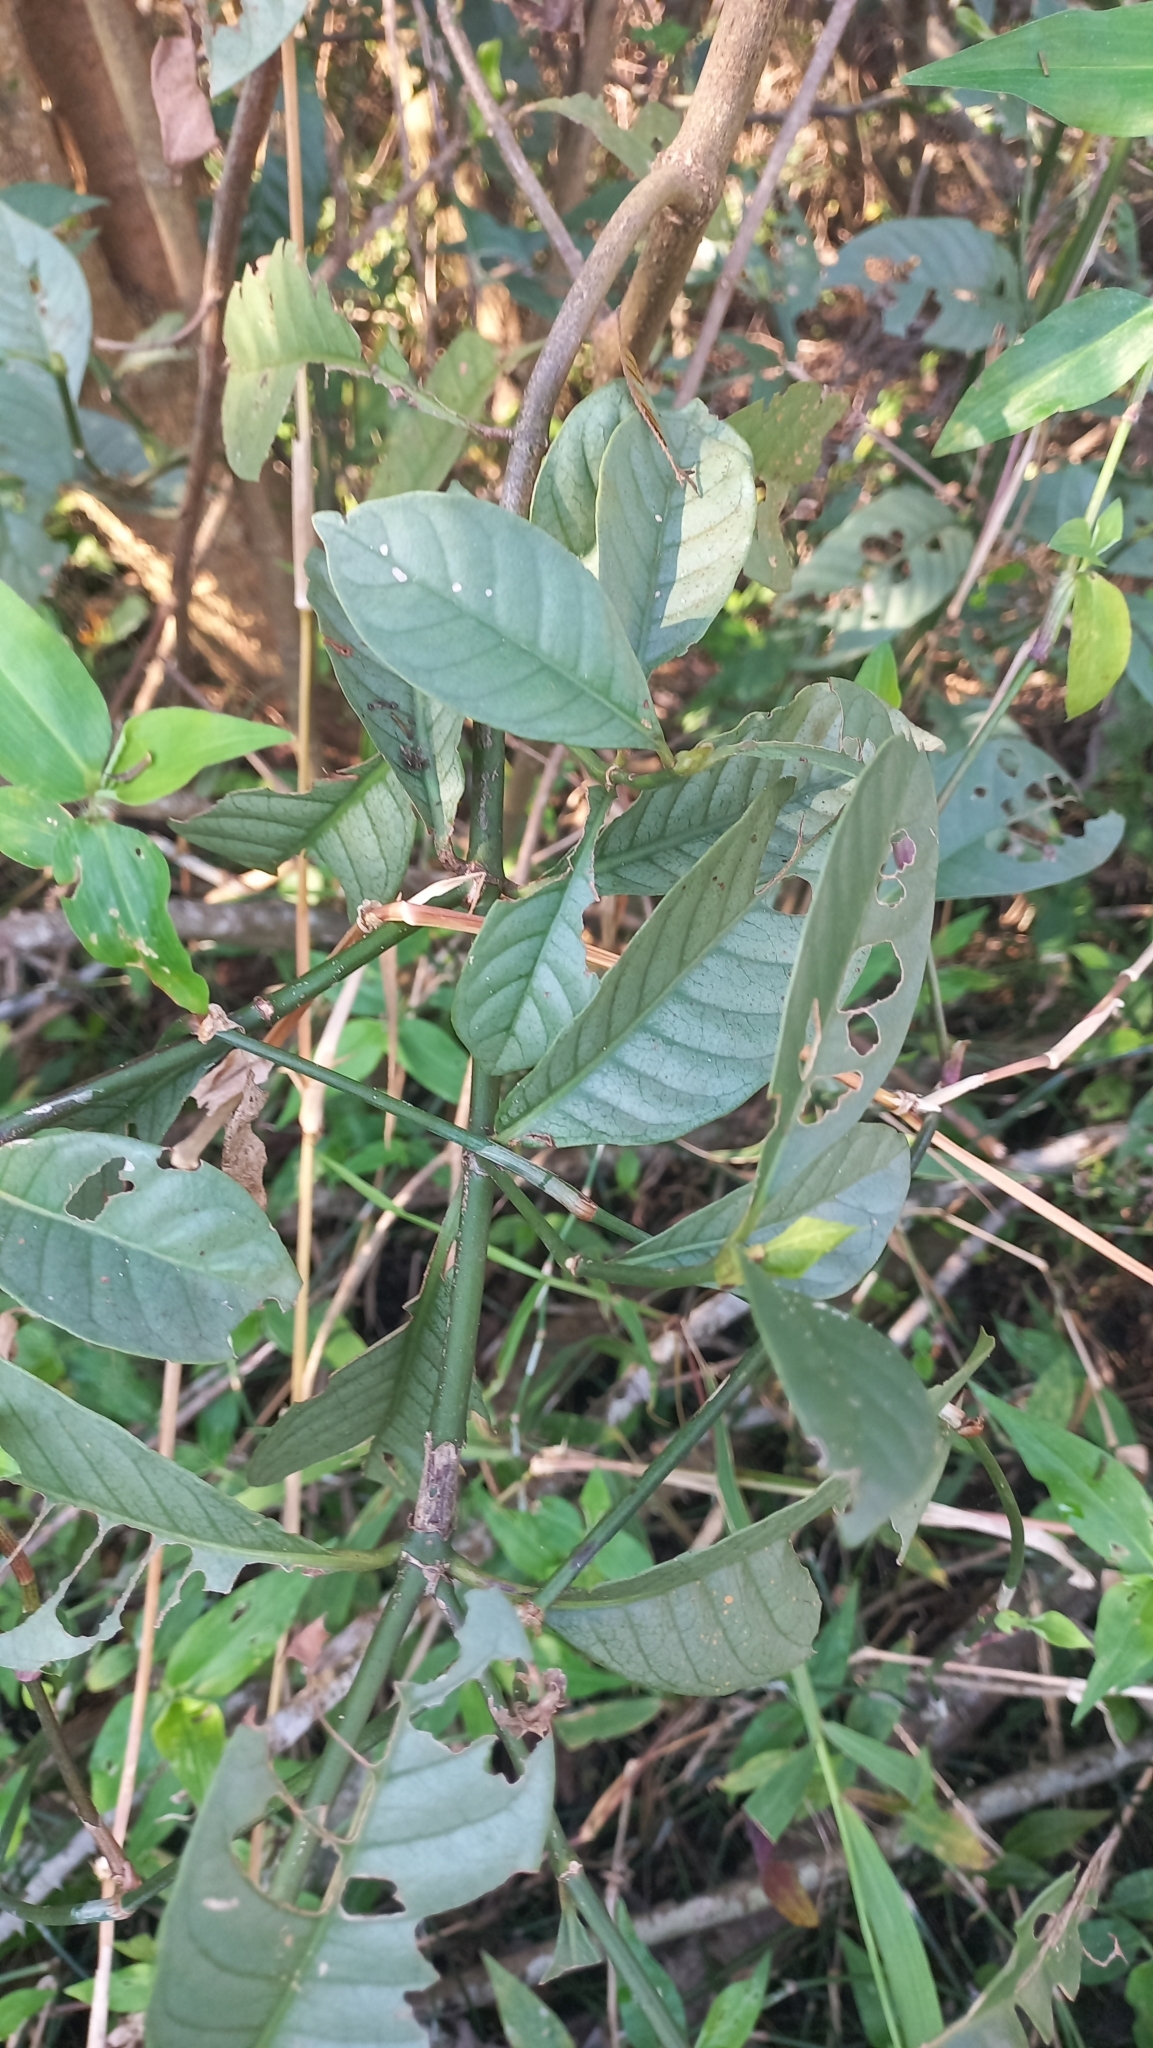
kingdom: Plantae
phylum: Tracheophyta
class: Magnoliopsida
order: Gentianales
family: Rubiaceae
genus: Psychotria
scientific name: Psychotria carthagenensis
